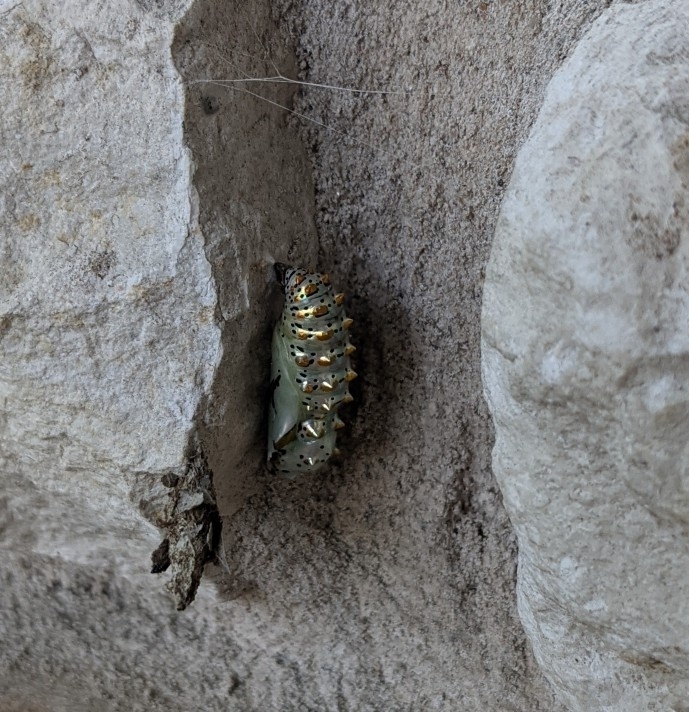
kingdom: Animalia
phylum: Arthropoda
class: Insecta
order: Lepidoptera
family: Nymphalidae
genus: Euptoieta
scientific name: Euptoieta claudia
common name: Variegated fritillary
